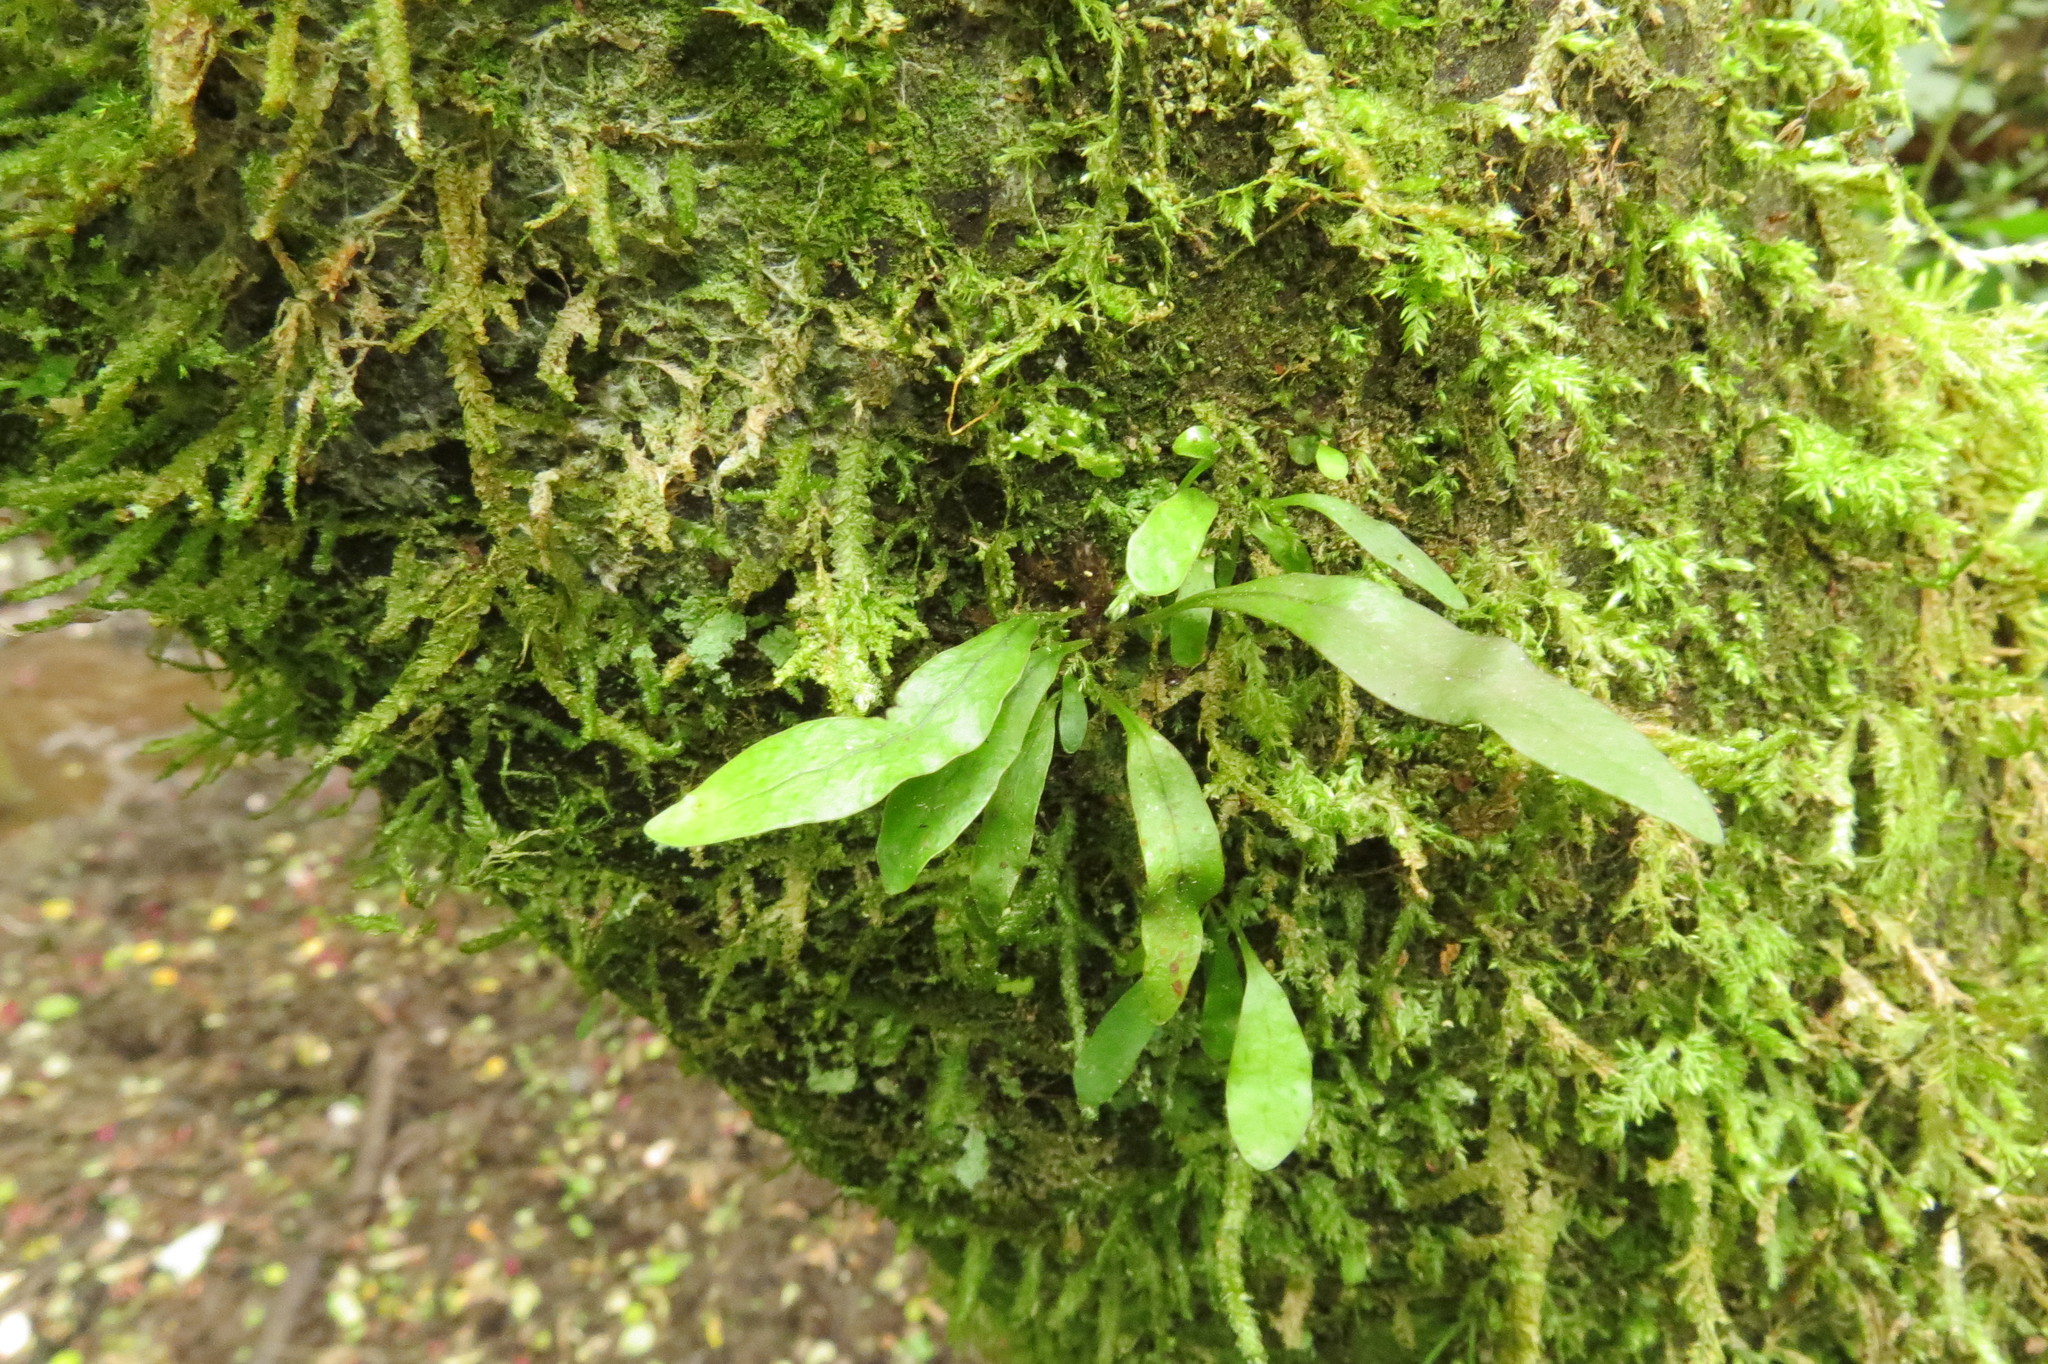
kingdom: Plantae
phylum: Tracheophyta
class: Polypodiopsida
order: Polypodiales
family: Polypodiaceae
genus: Lecanopteris
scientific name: Lecanopteris pustulata
